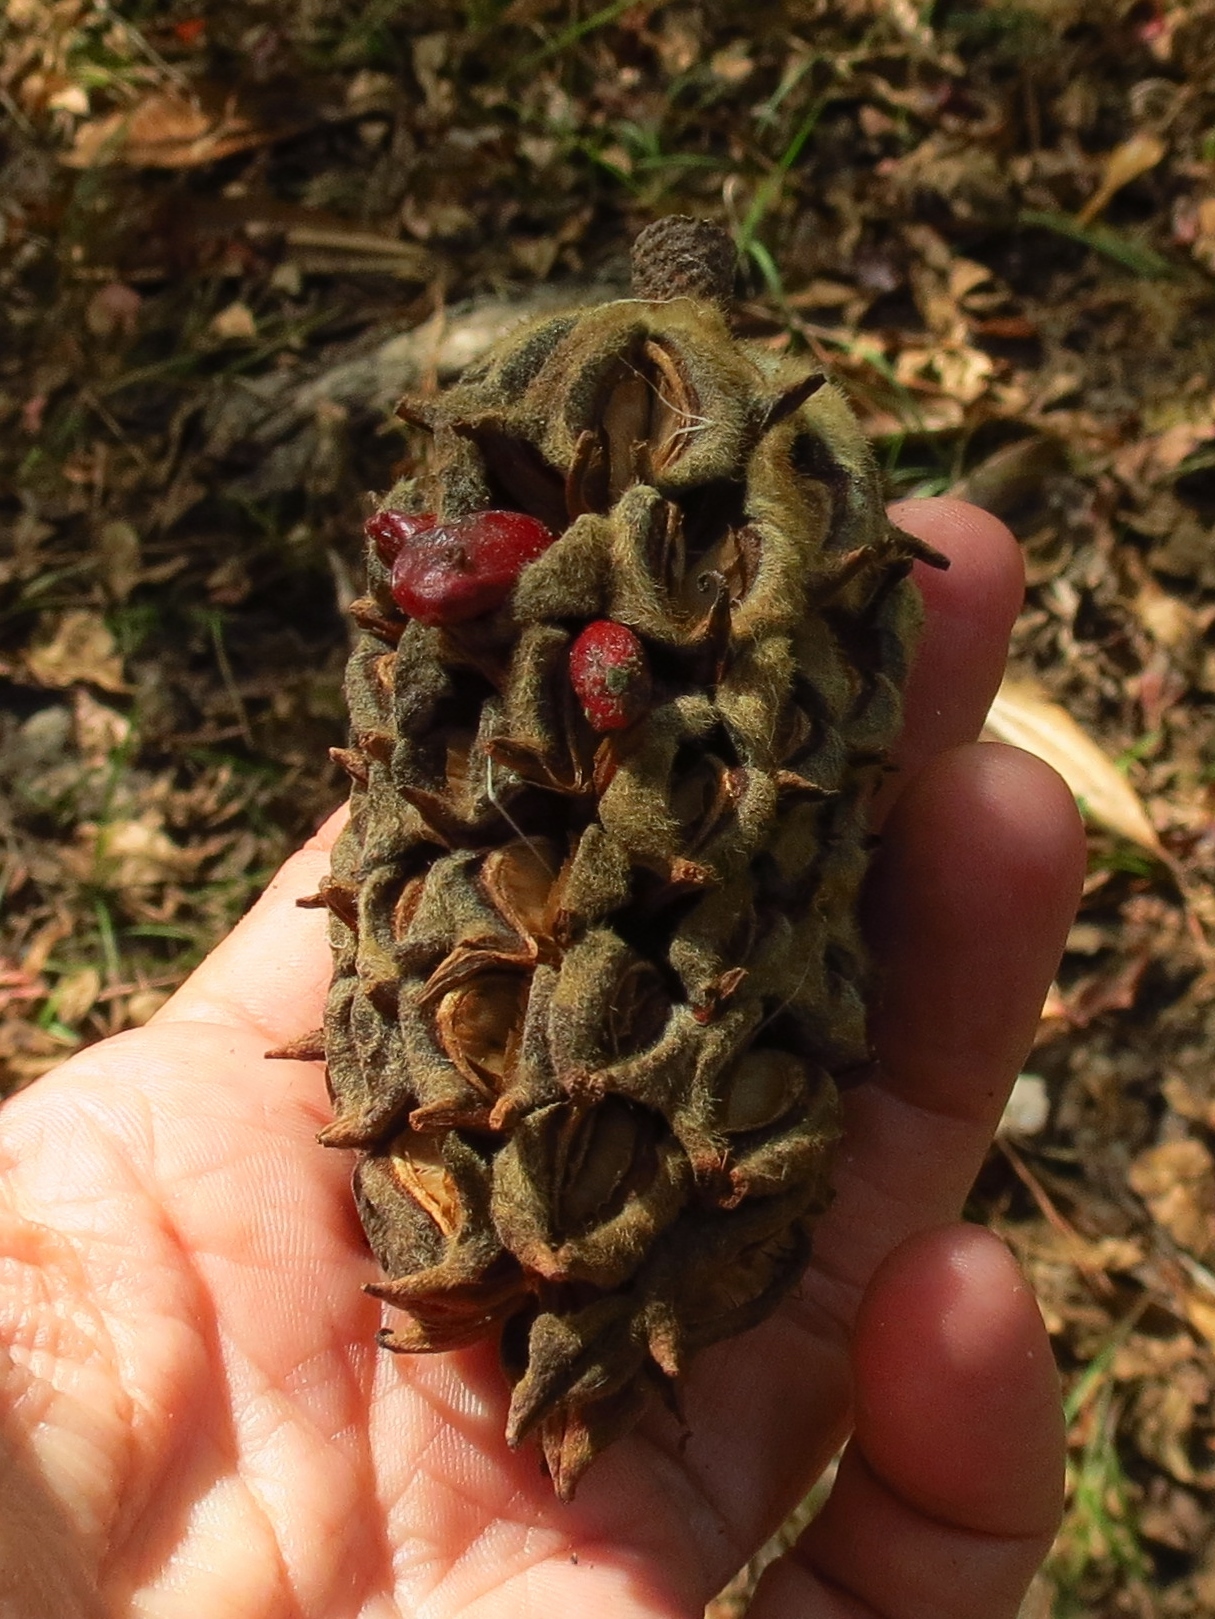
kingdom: Plantae
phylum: Tracheophyta
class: Magnoliopsida
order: Magnoliales
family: Magnoliaceae
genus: Magnolia
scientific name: Magnolia grandiflora
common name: Southern magnolia
